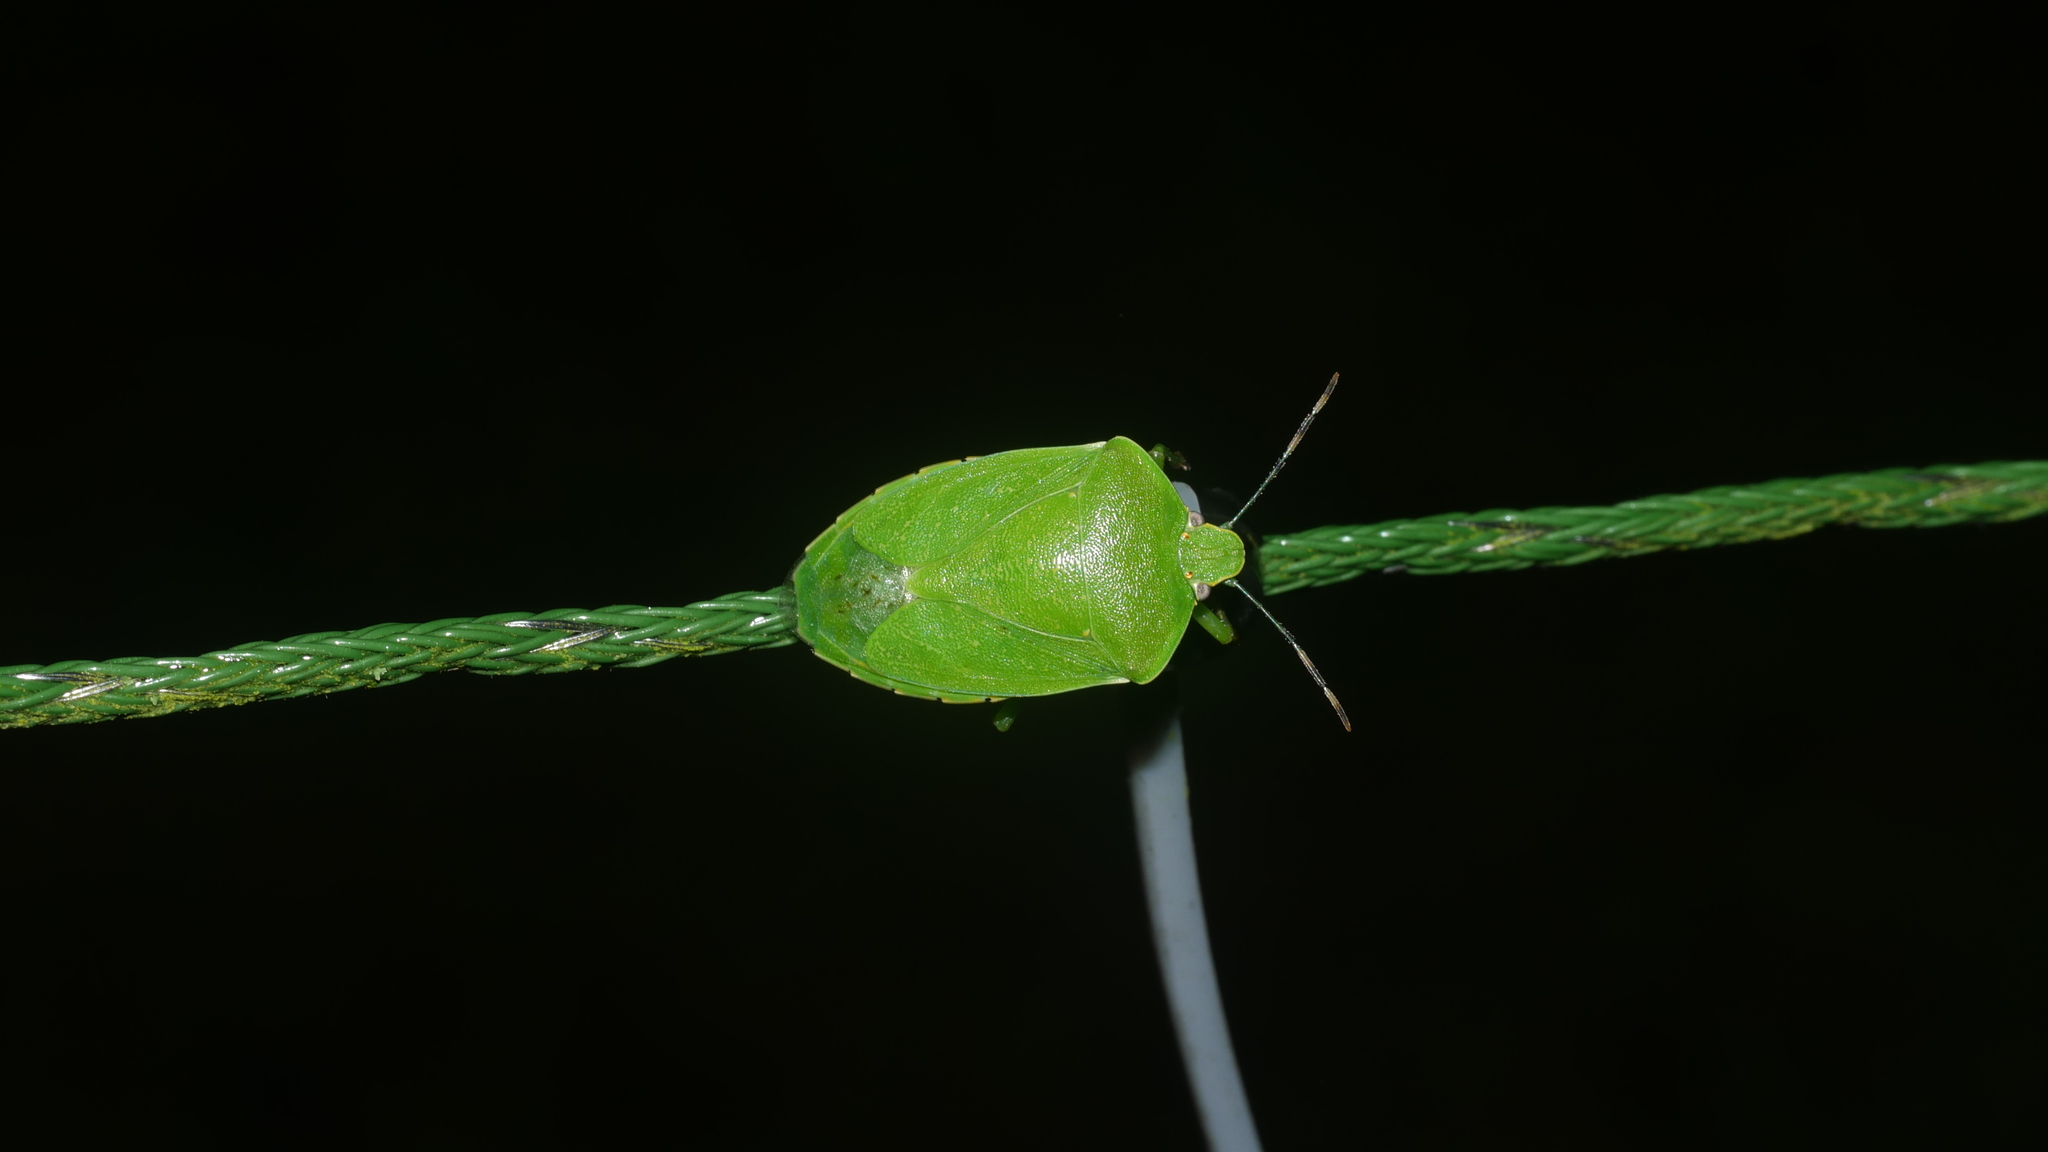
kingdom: Animalia
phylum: Arthropoda
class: Insecta
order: Hemiptera
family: Pentatomidae
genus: Chinavia
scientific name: Chinavia hilaris
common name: Green stink bug
